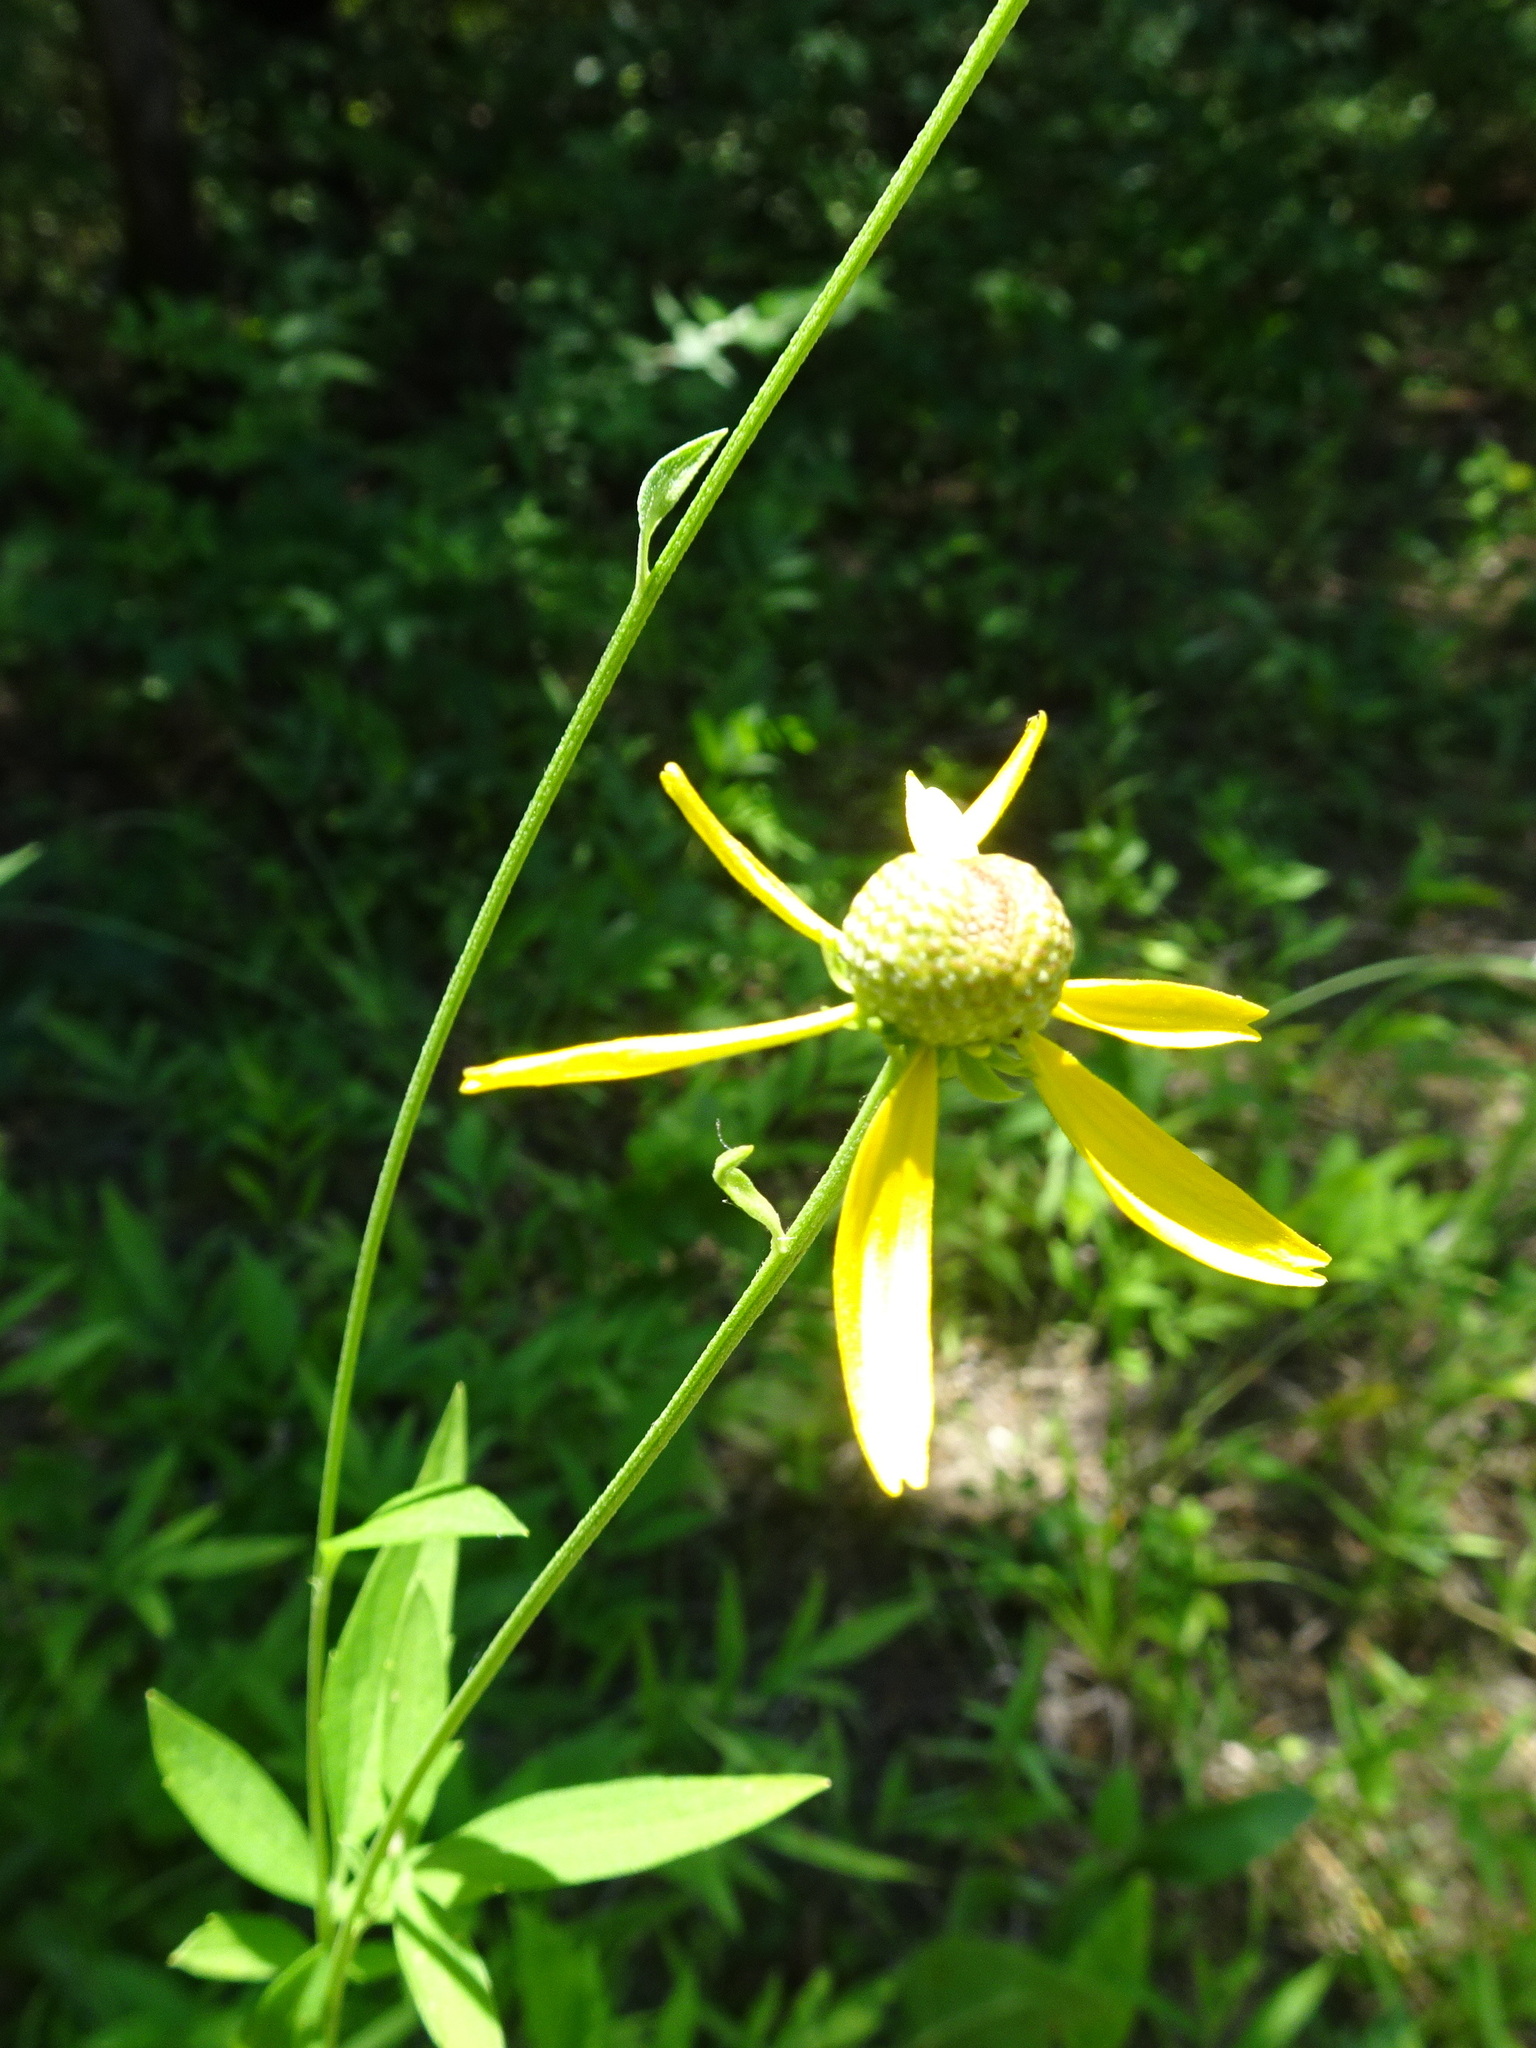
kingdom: Plantae
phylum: Tracheophyta
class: Magnoliopsida
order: Asterales
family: Asteraceae
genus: Ratibida
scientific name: Ratibida pinnata
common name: Drooping prairie-coneflower
